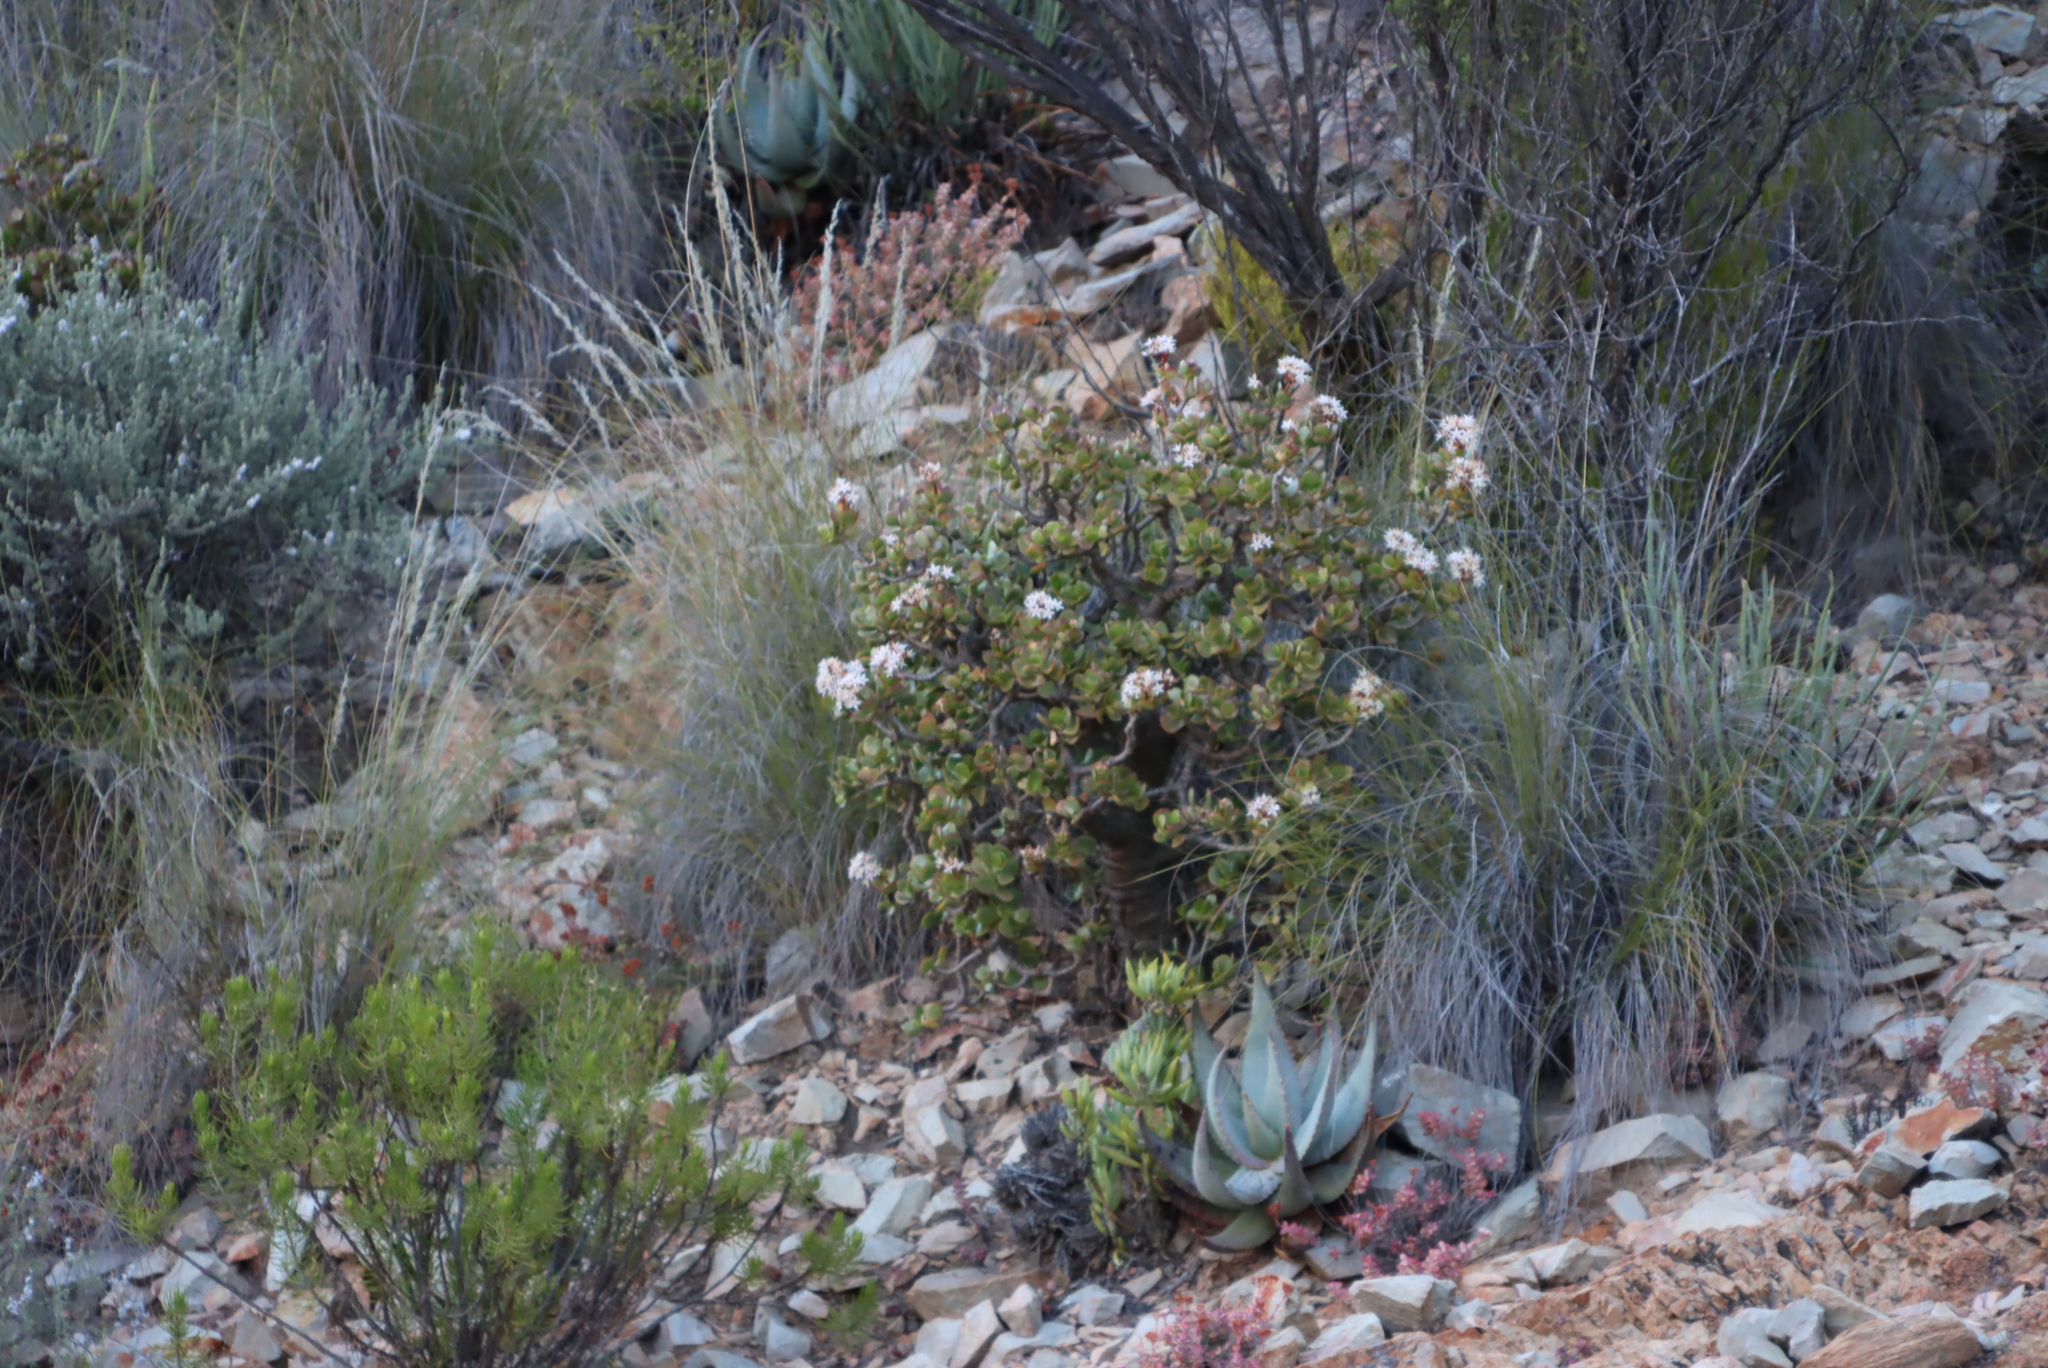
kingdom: Plantae
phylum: Tracheophyta
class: Magnoliopsida
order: Saxifragales
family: Crassulaceae
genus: Crassula
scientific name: Crassula arborescens
